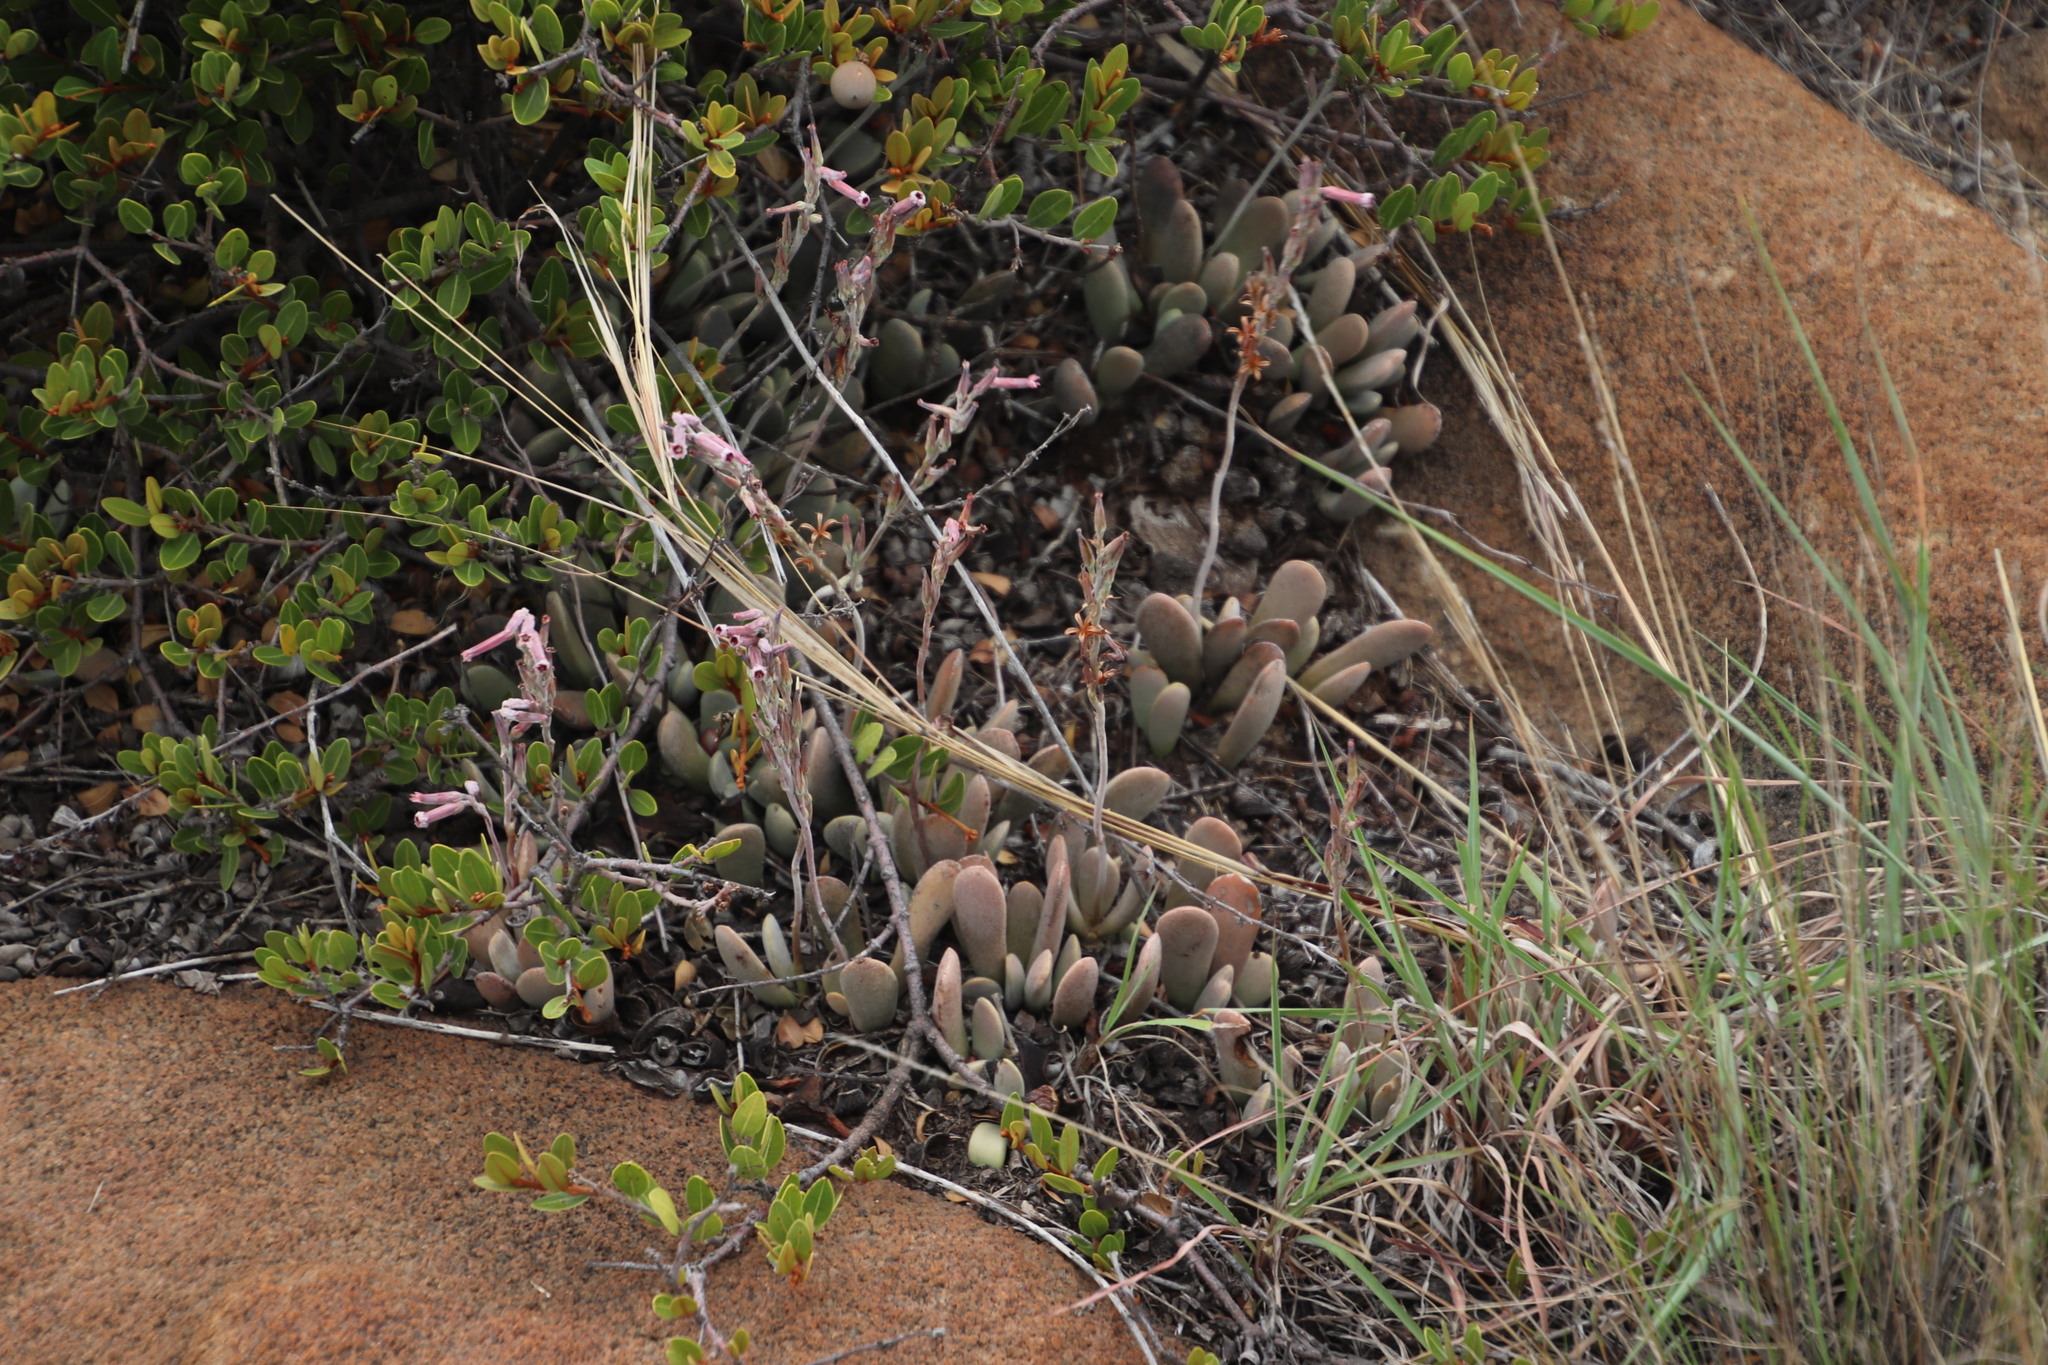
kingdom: Plantae
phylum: Tracheophyta
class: Magnoliopsida
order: Saxifragales
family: Crassulaceae
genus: Adromischus
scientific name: Adromischus umbraticola
